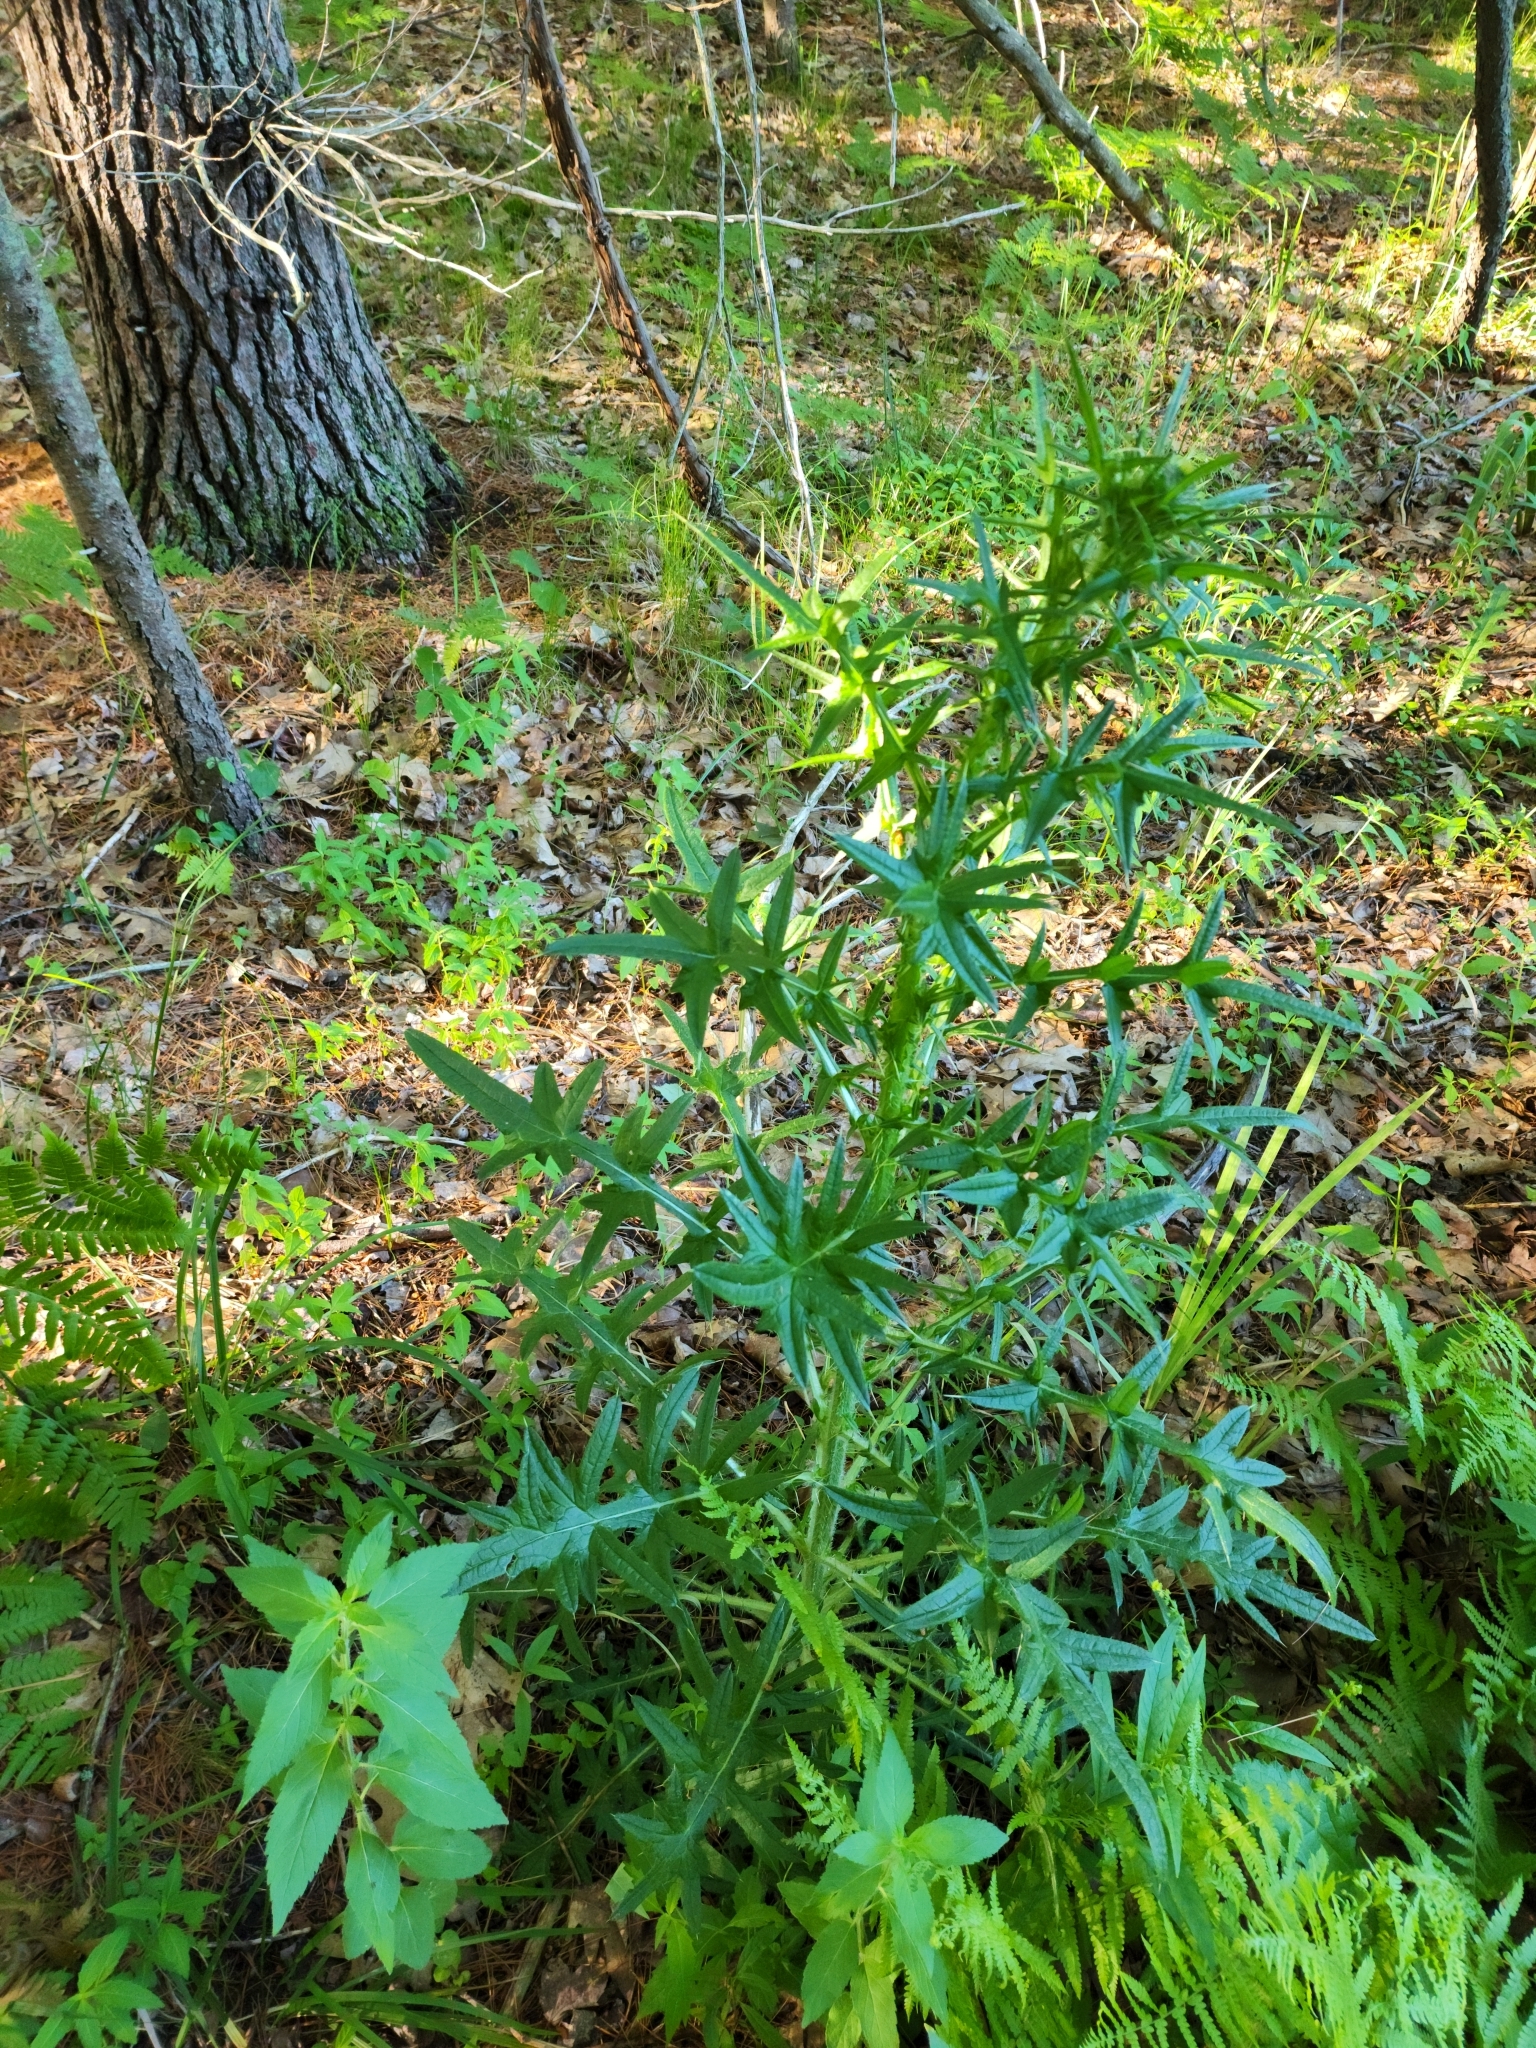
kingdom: Plantae
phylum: Tracheophyta
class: Magnoliopsida
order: Asterales
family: Asteraceae
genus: Cirsium
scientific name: Cirsium vulgare
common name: Bull thistle
